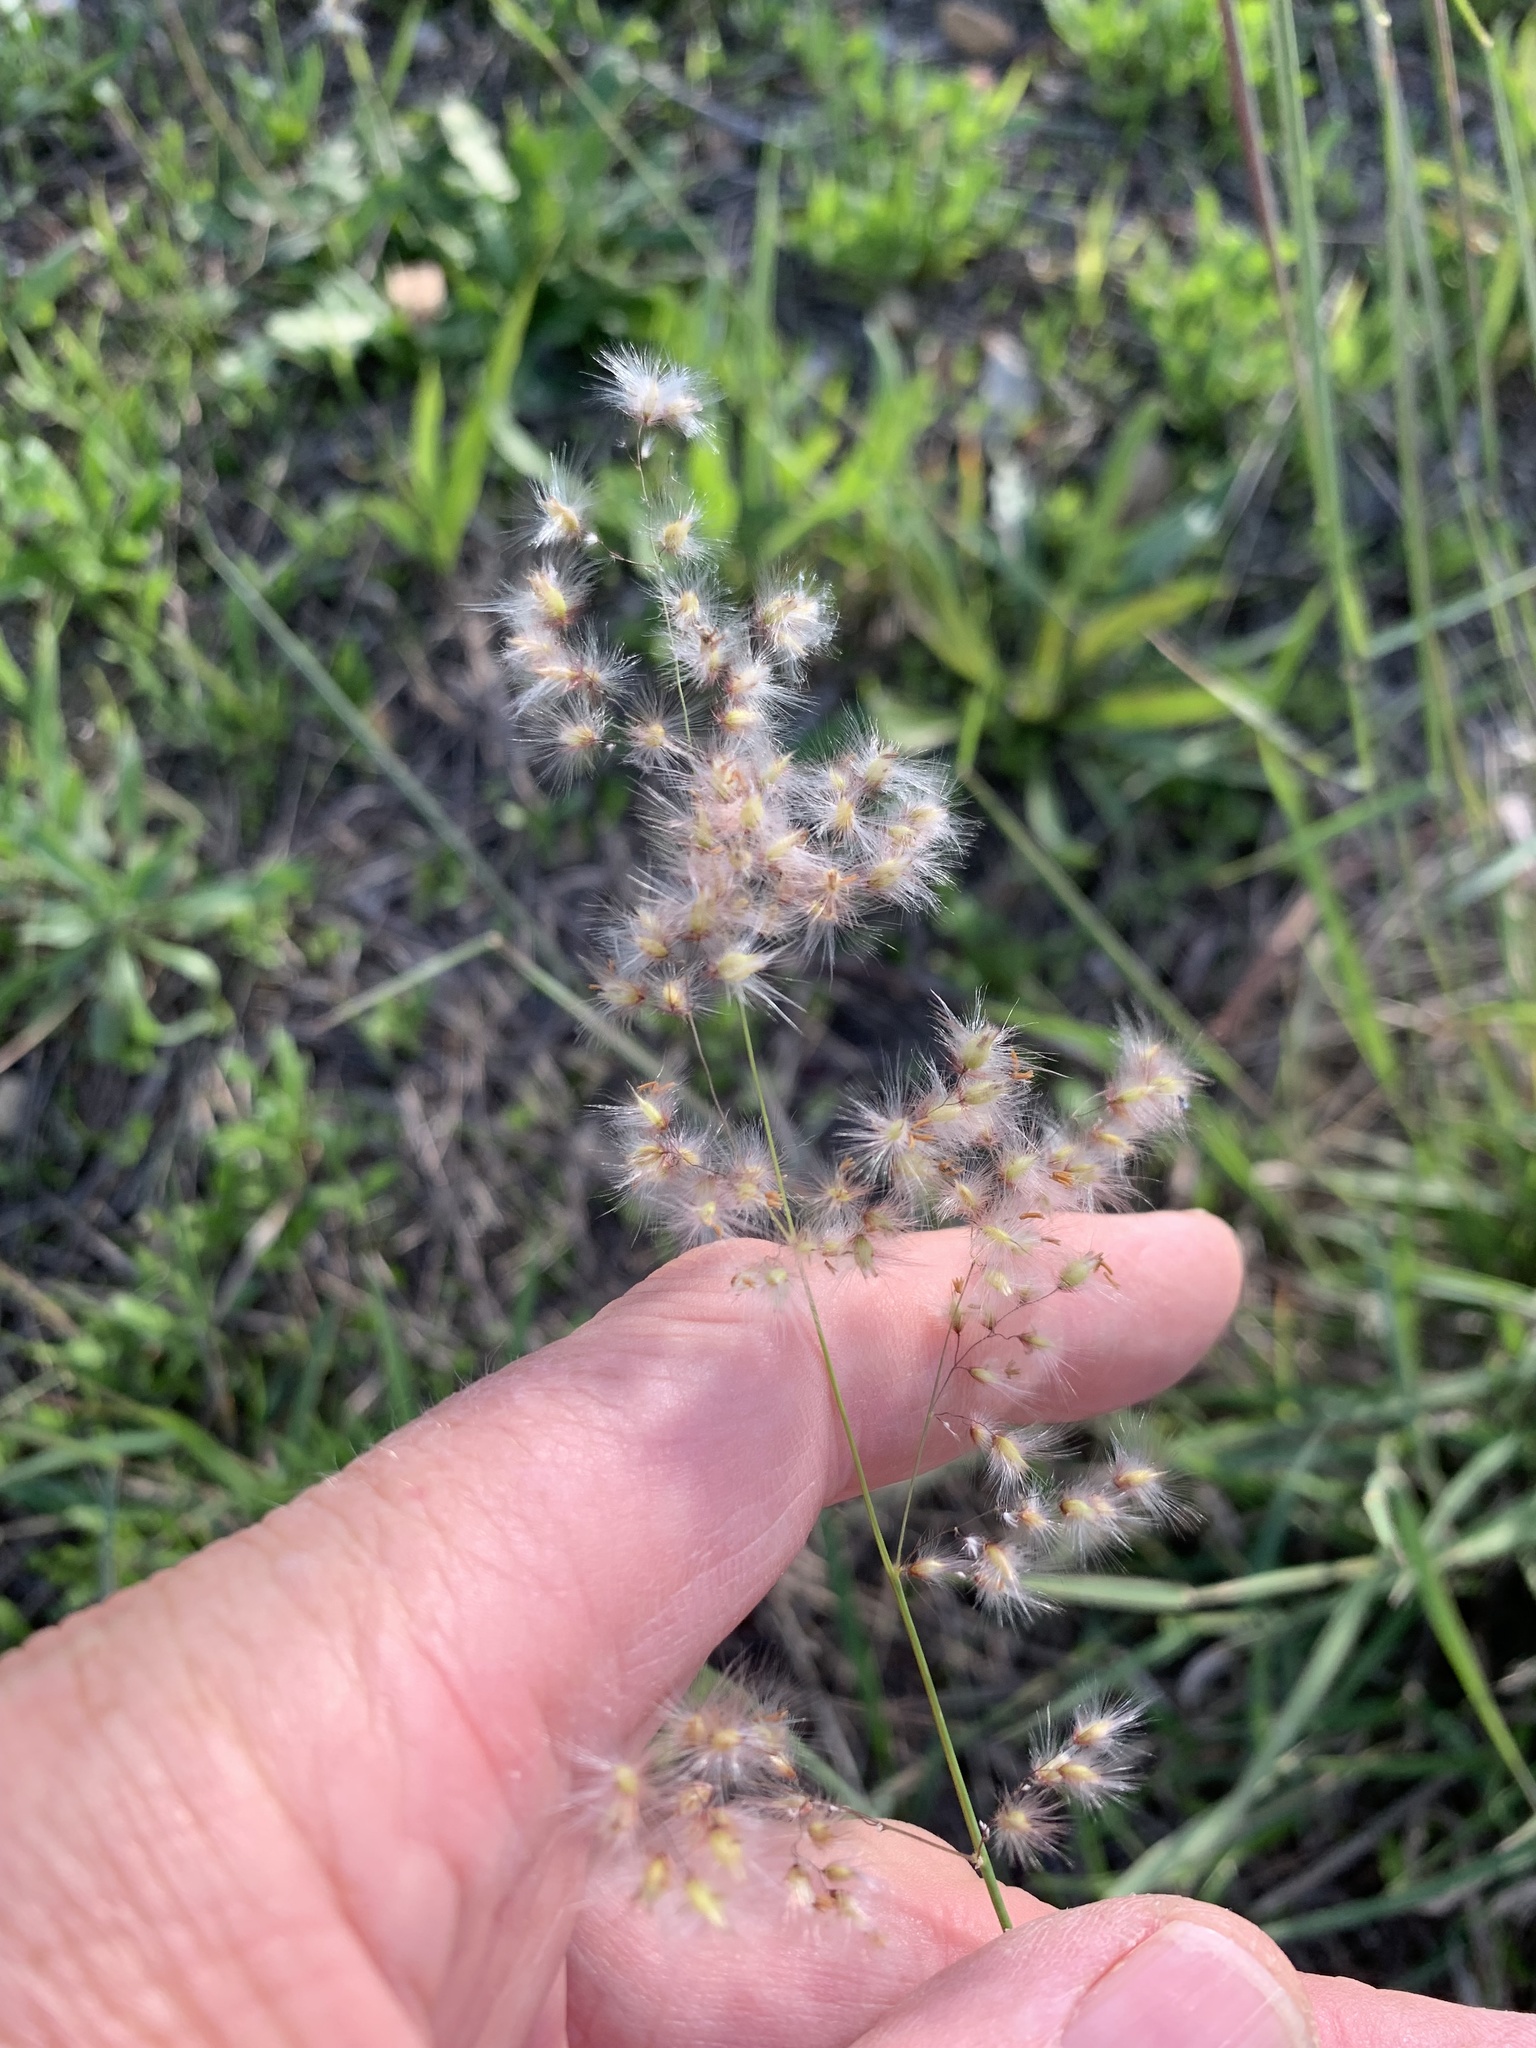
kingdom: Plantae
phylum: Tracheophyta
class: Liliopsida
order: Poales
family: Poaceae
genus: Melinis
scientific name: Melinis repens
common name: Rose natal grass
